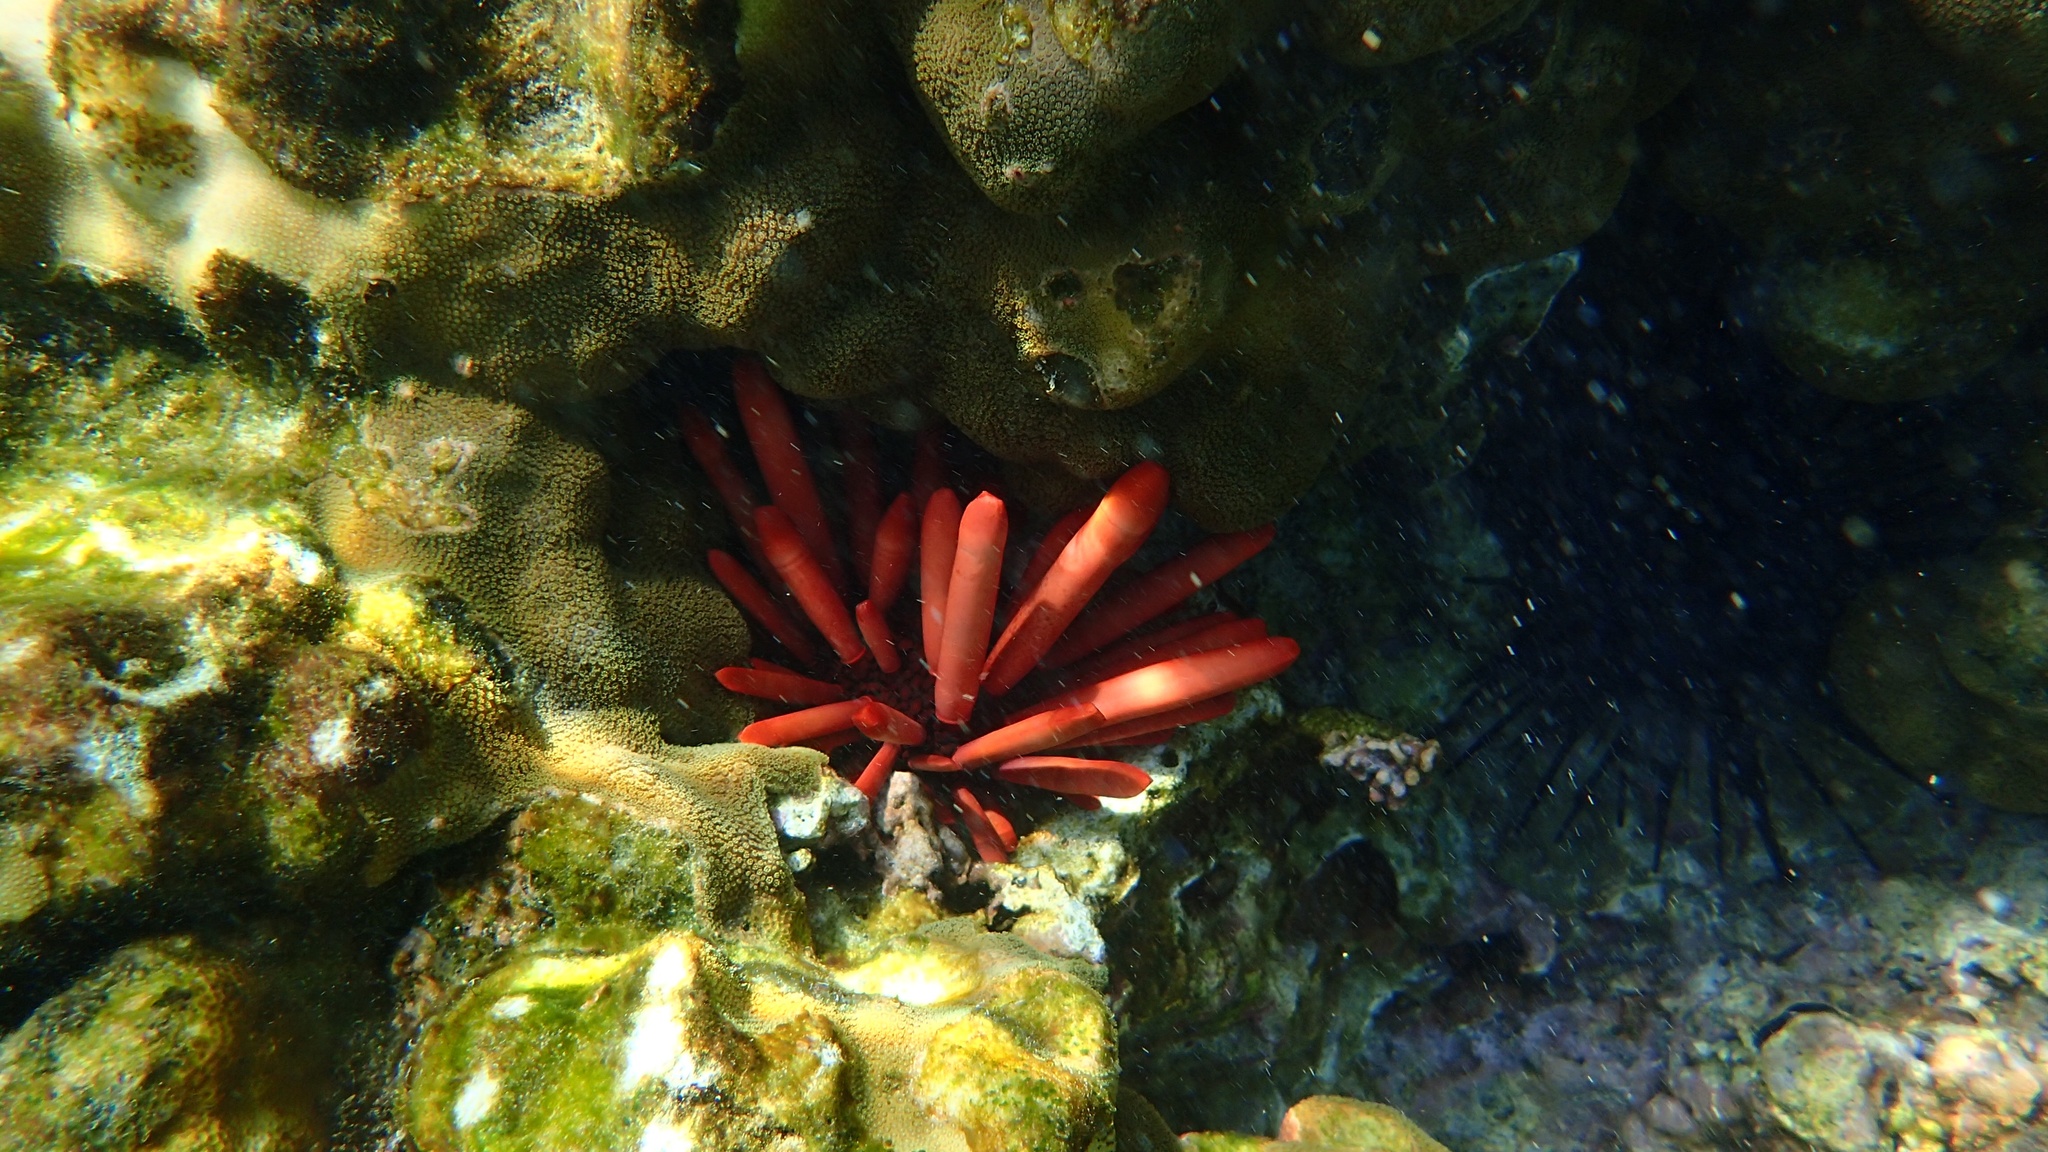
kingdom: Animalia
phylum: Echinodermata
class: Echinoidea
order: Camarodonta
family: Echinometridae
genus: Heterocentrotus
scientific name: Heterocentrotus mamillatus
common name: Slate pencil urchin
